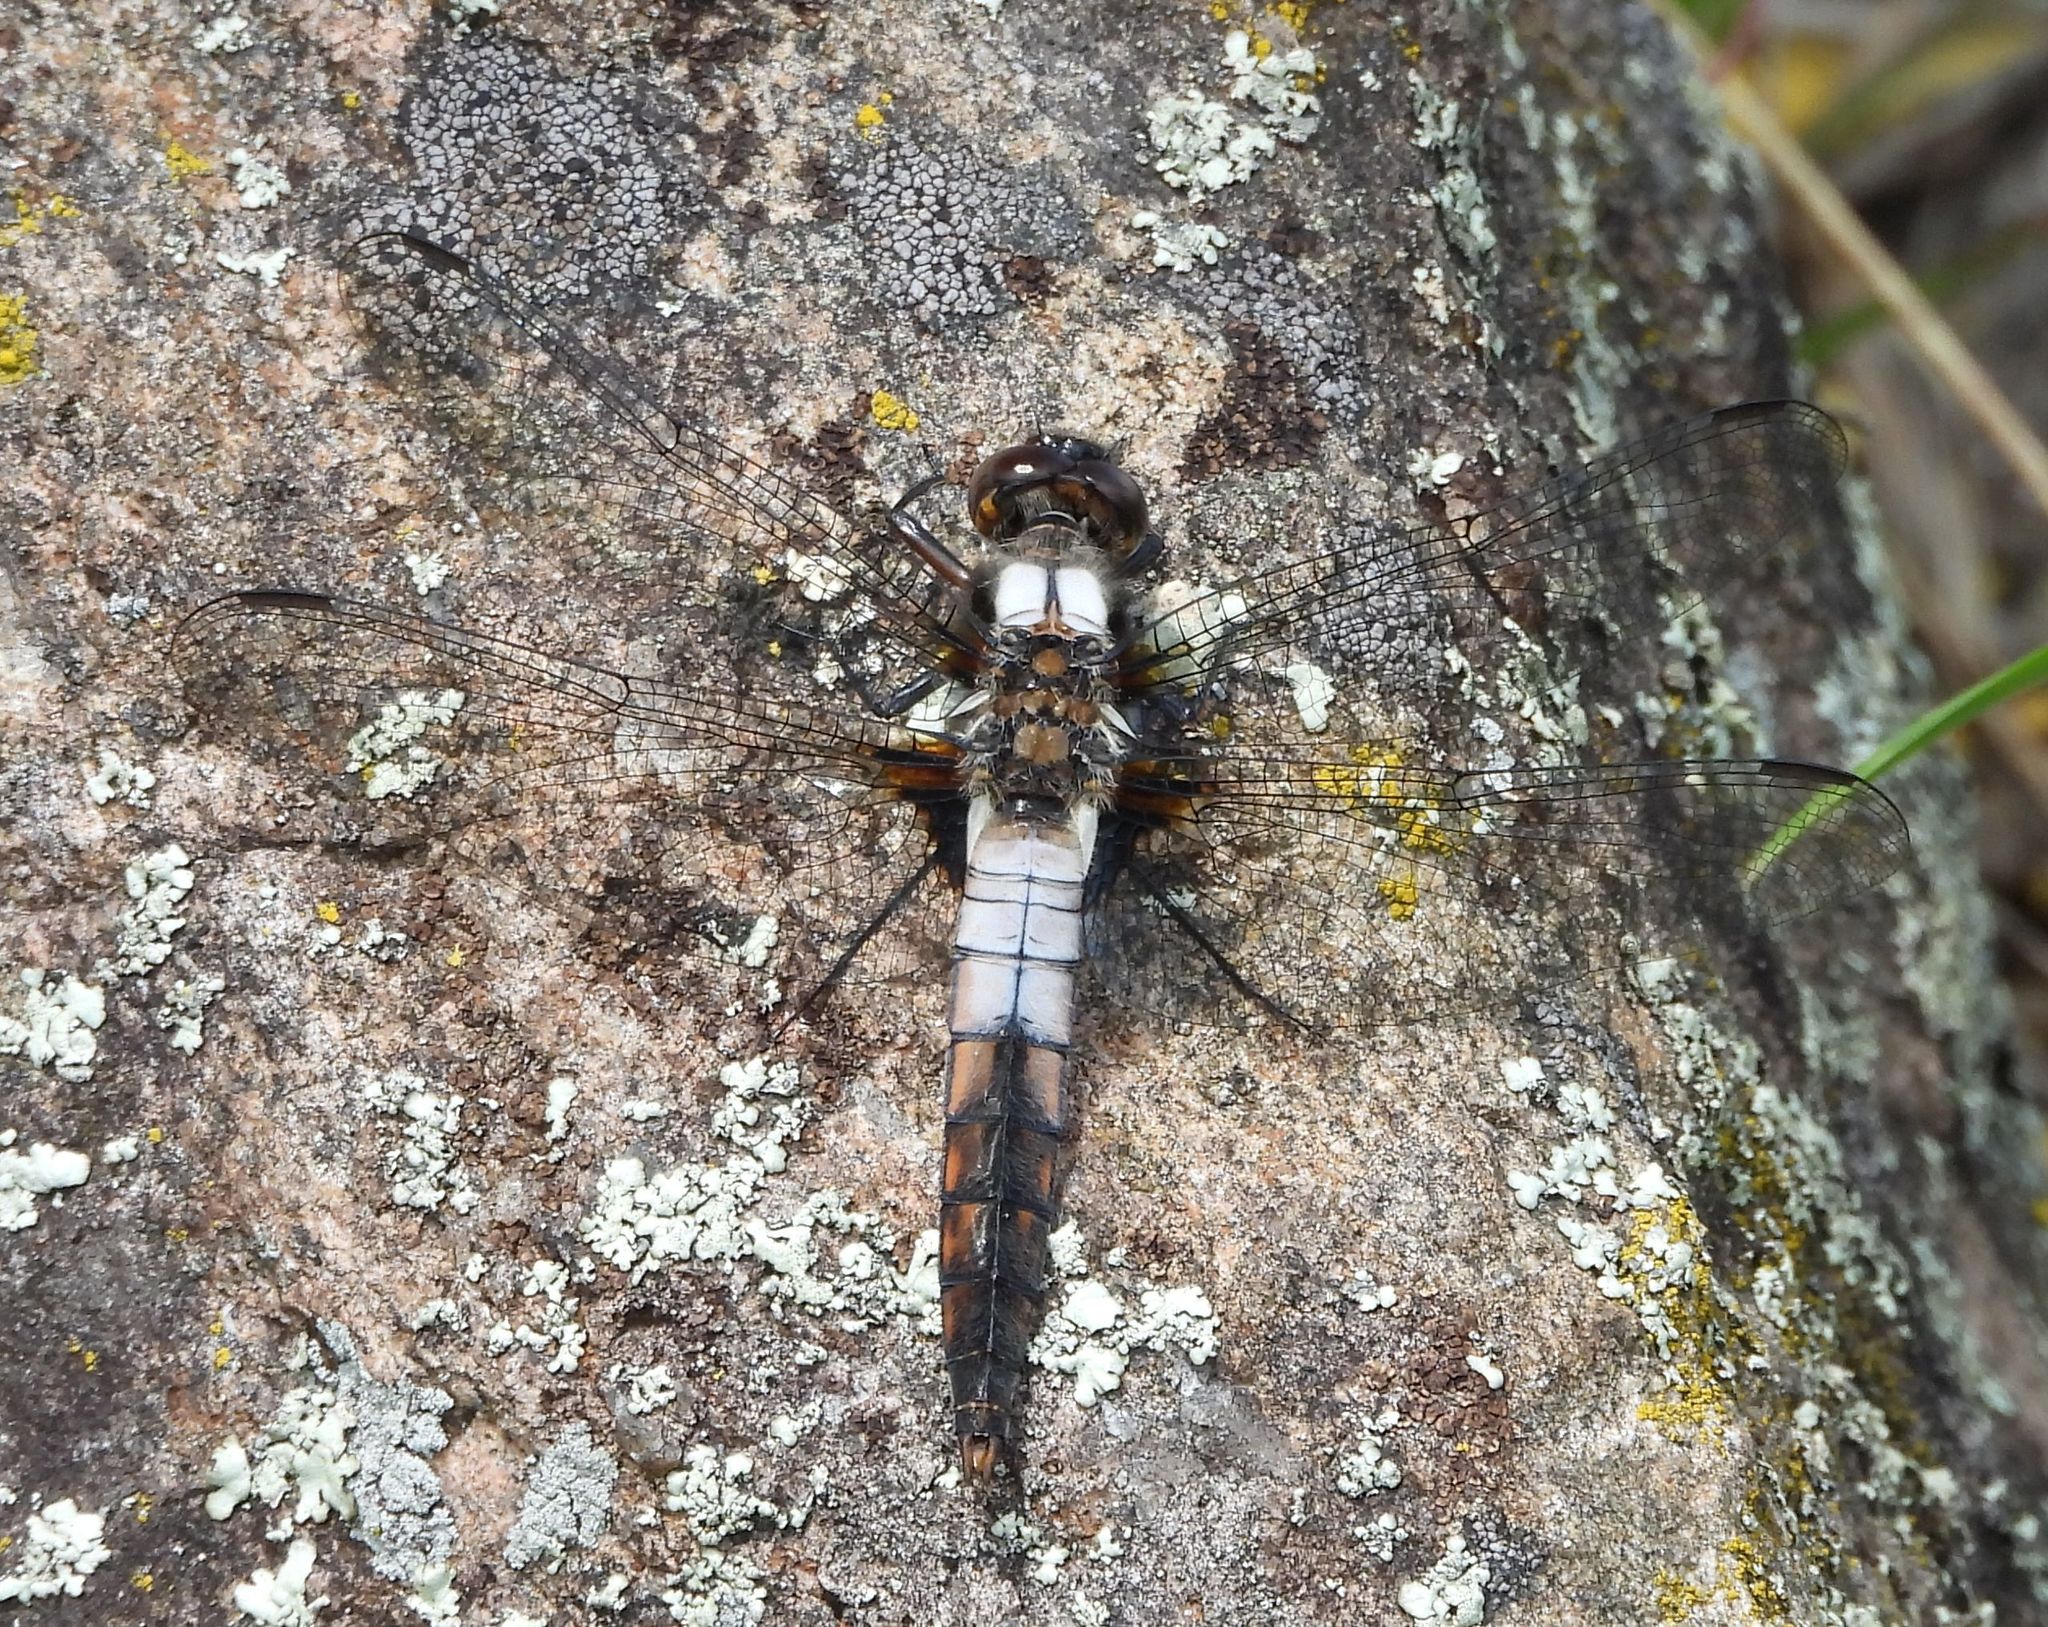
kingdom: Animalia
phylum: Arthropoda
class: Insecta
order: Odonata
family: Libellulidae
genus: Ladona
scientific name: Ladona julia
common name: Chalk-fronted corporal
